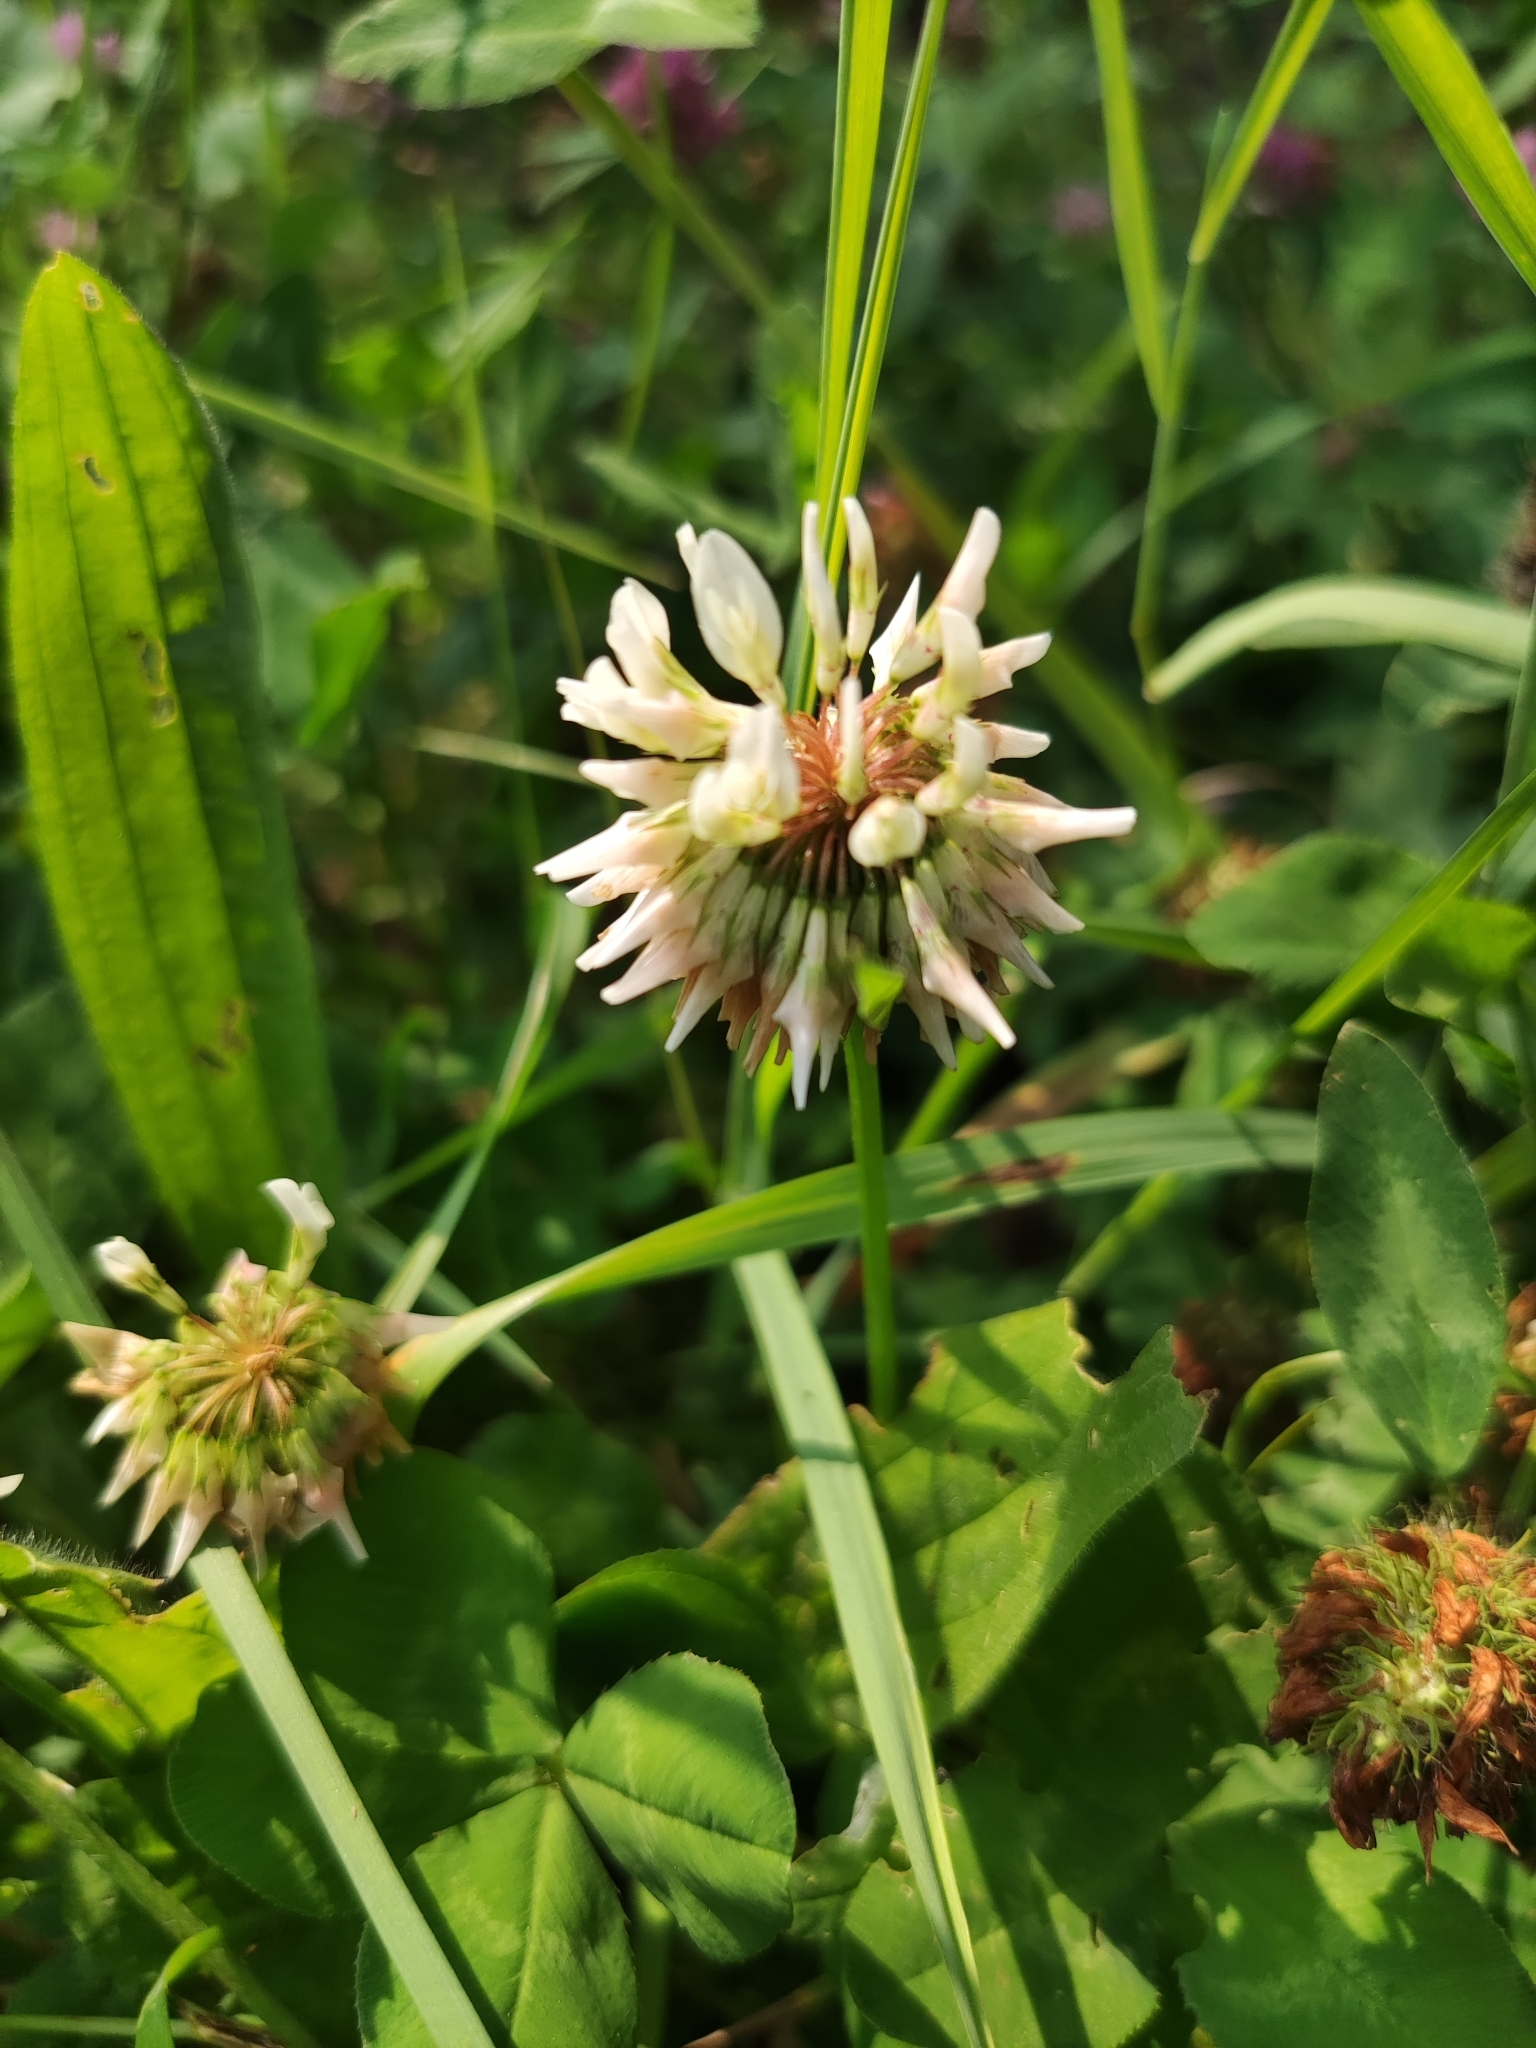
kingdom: Plantae
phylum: Tracheophyta
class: Magnoliopsida
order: Fabales
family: Fabaceae
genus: Trifolium
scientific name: Trifolium repens
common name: White clover
